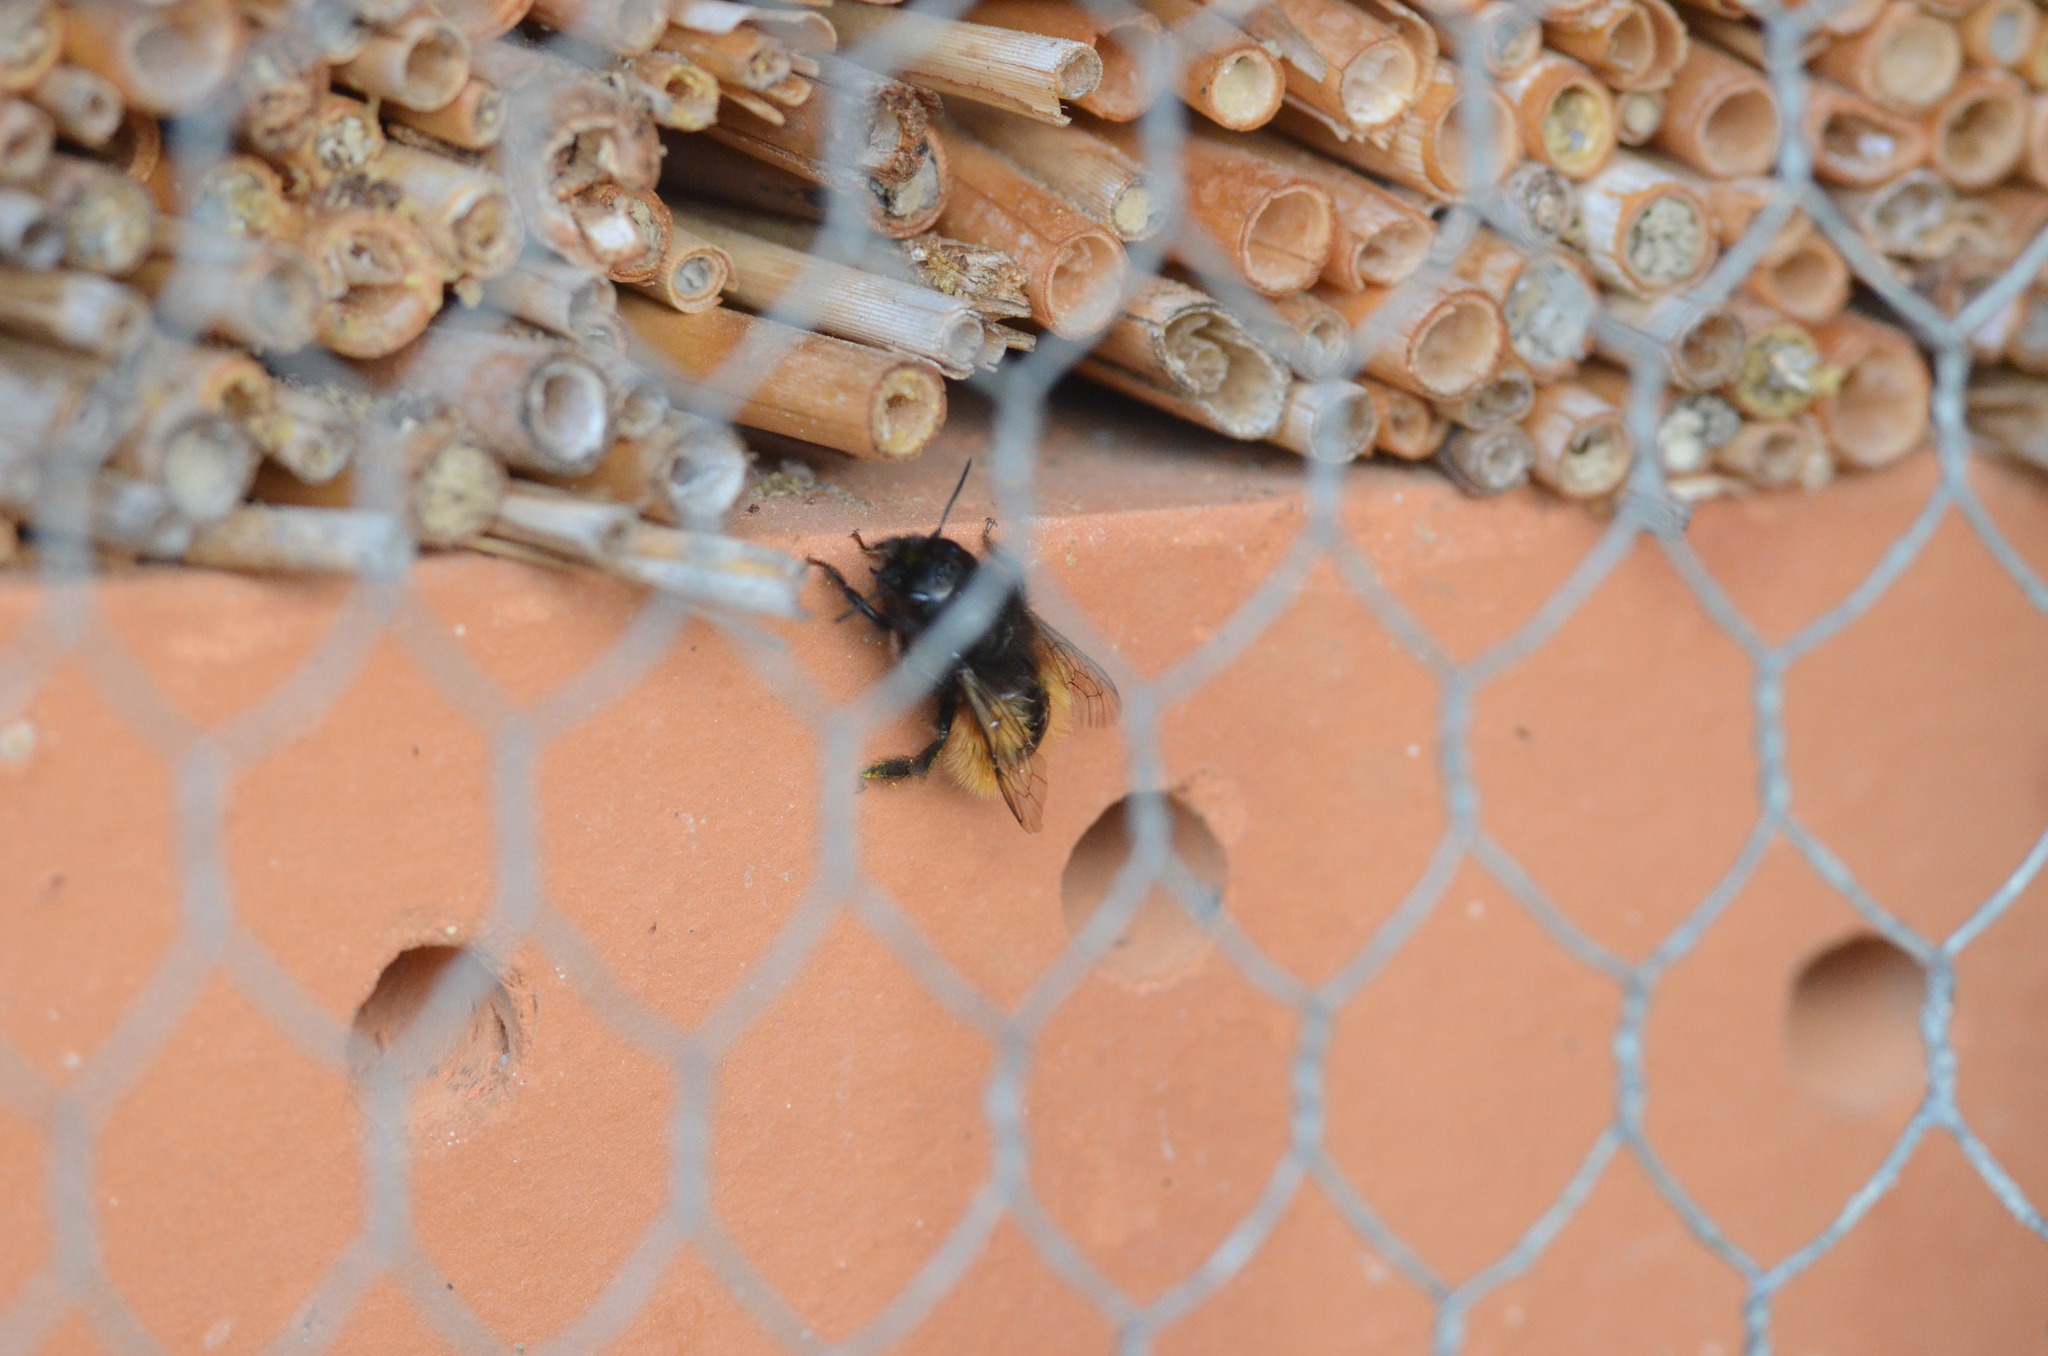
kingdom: Animalia
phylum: Arthropoda
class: Insecta
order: Hymenoptera
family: Megachilidae
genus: Osmia
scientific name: Osmia cornuta
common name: Mason bee
